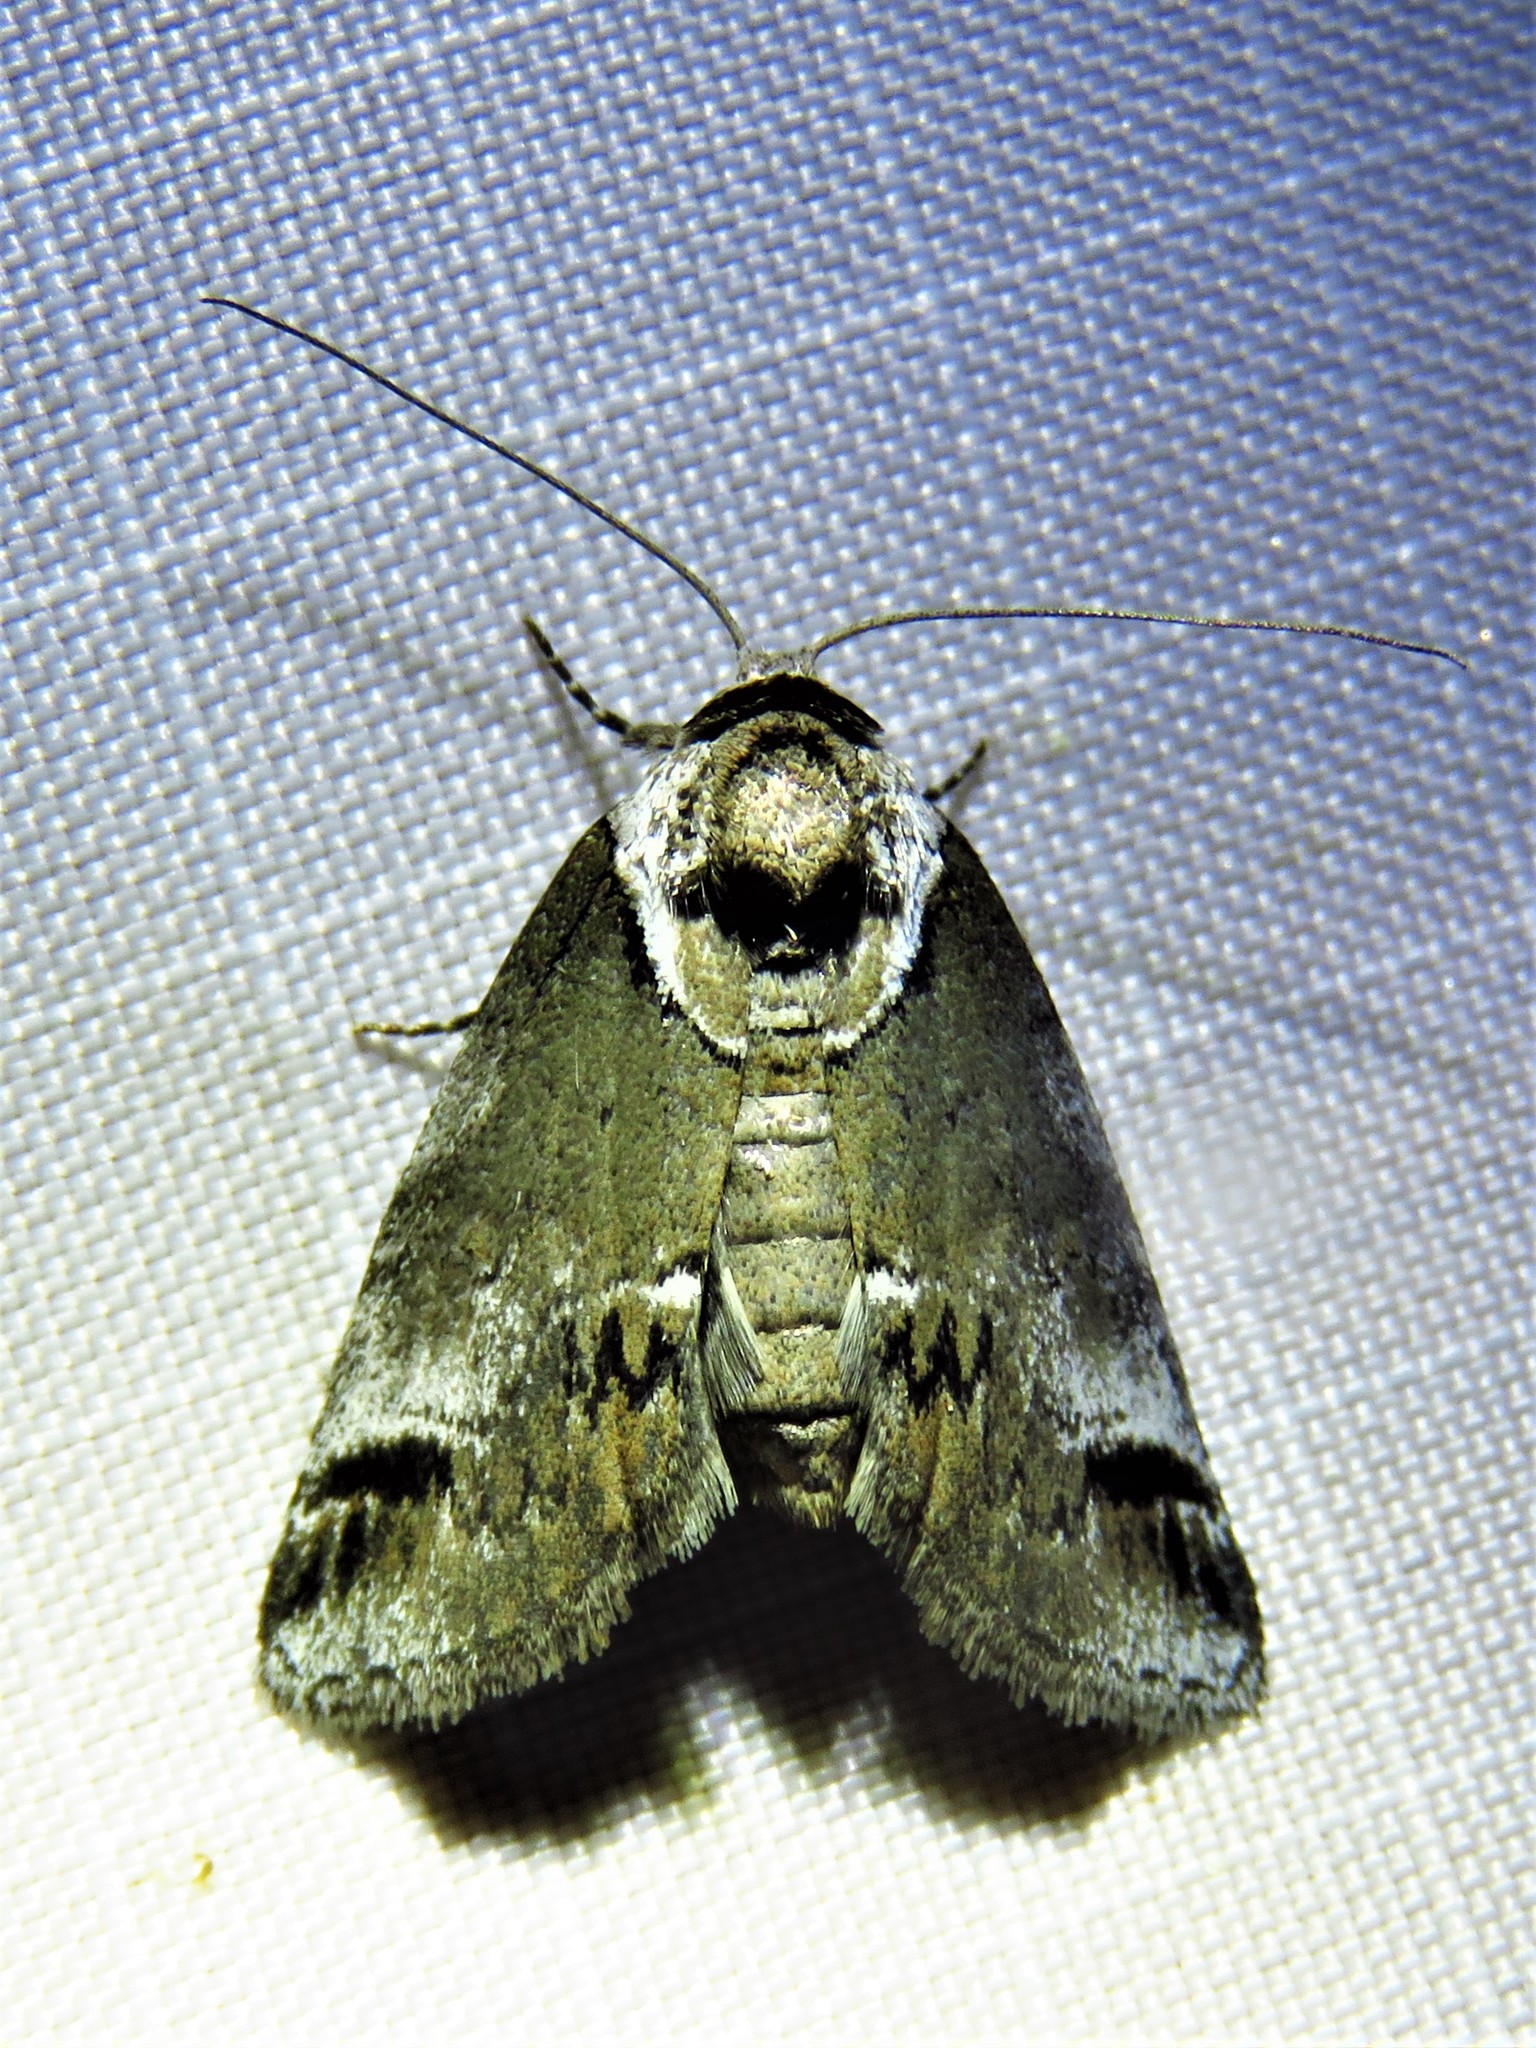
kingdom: Animalia
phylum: Arthropoda
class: Insecta
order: Lepidoptera
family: Nolidae
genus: Baileya
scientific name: Baileya australis
